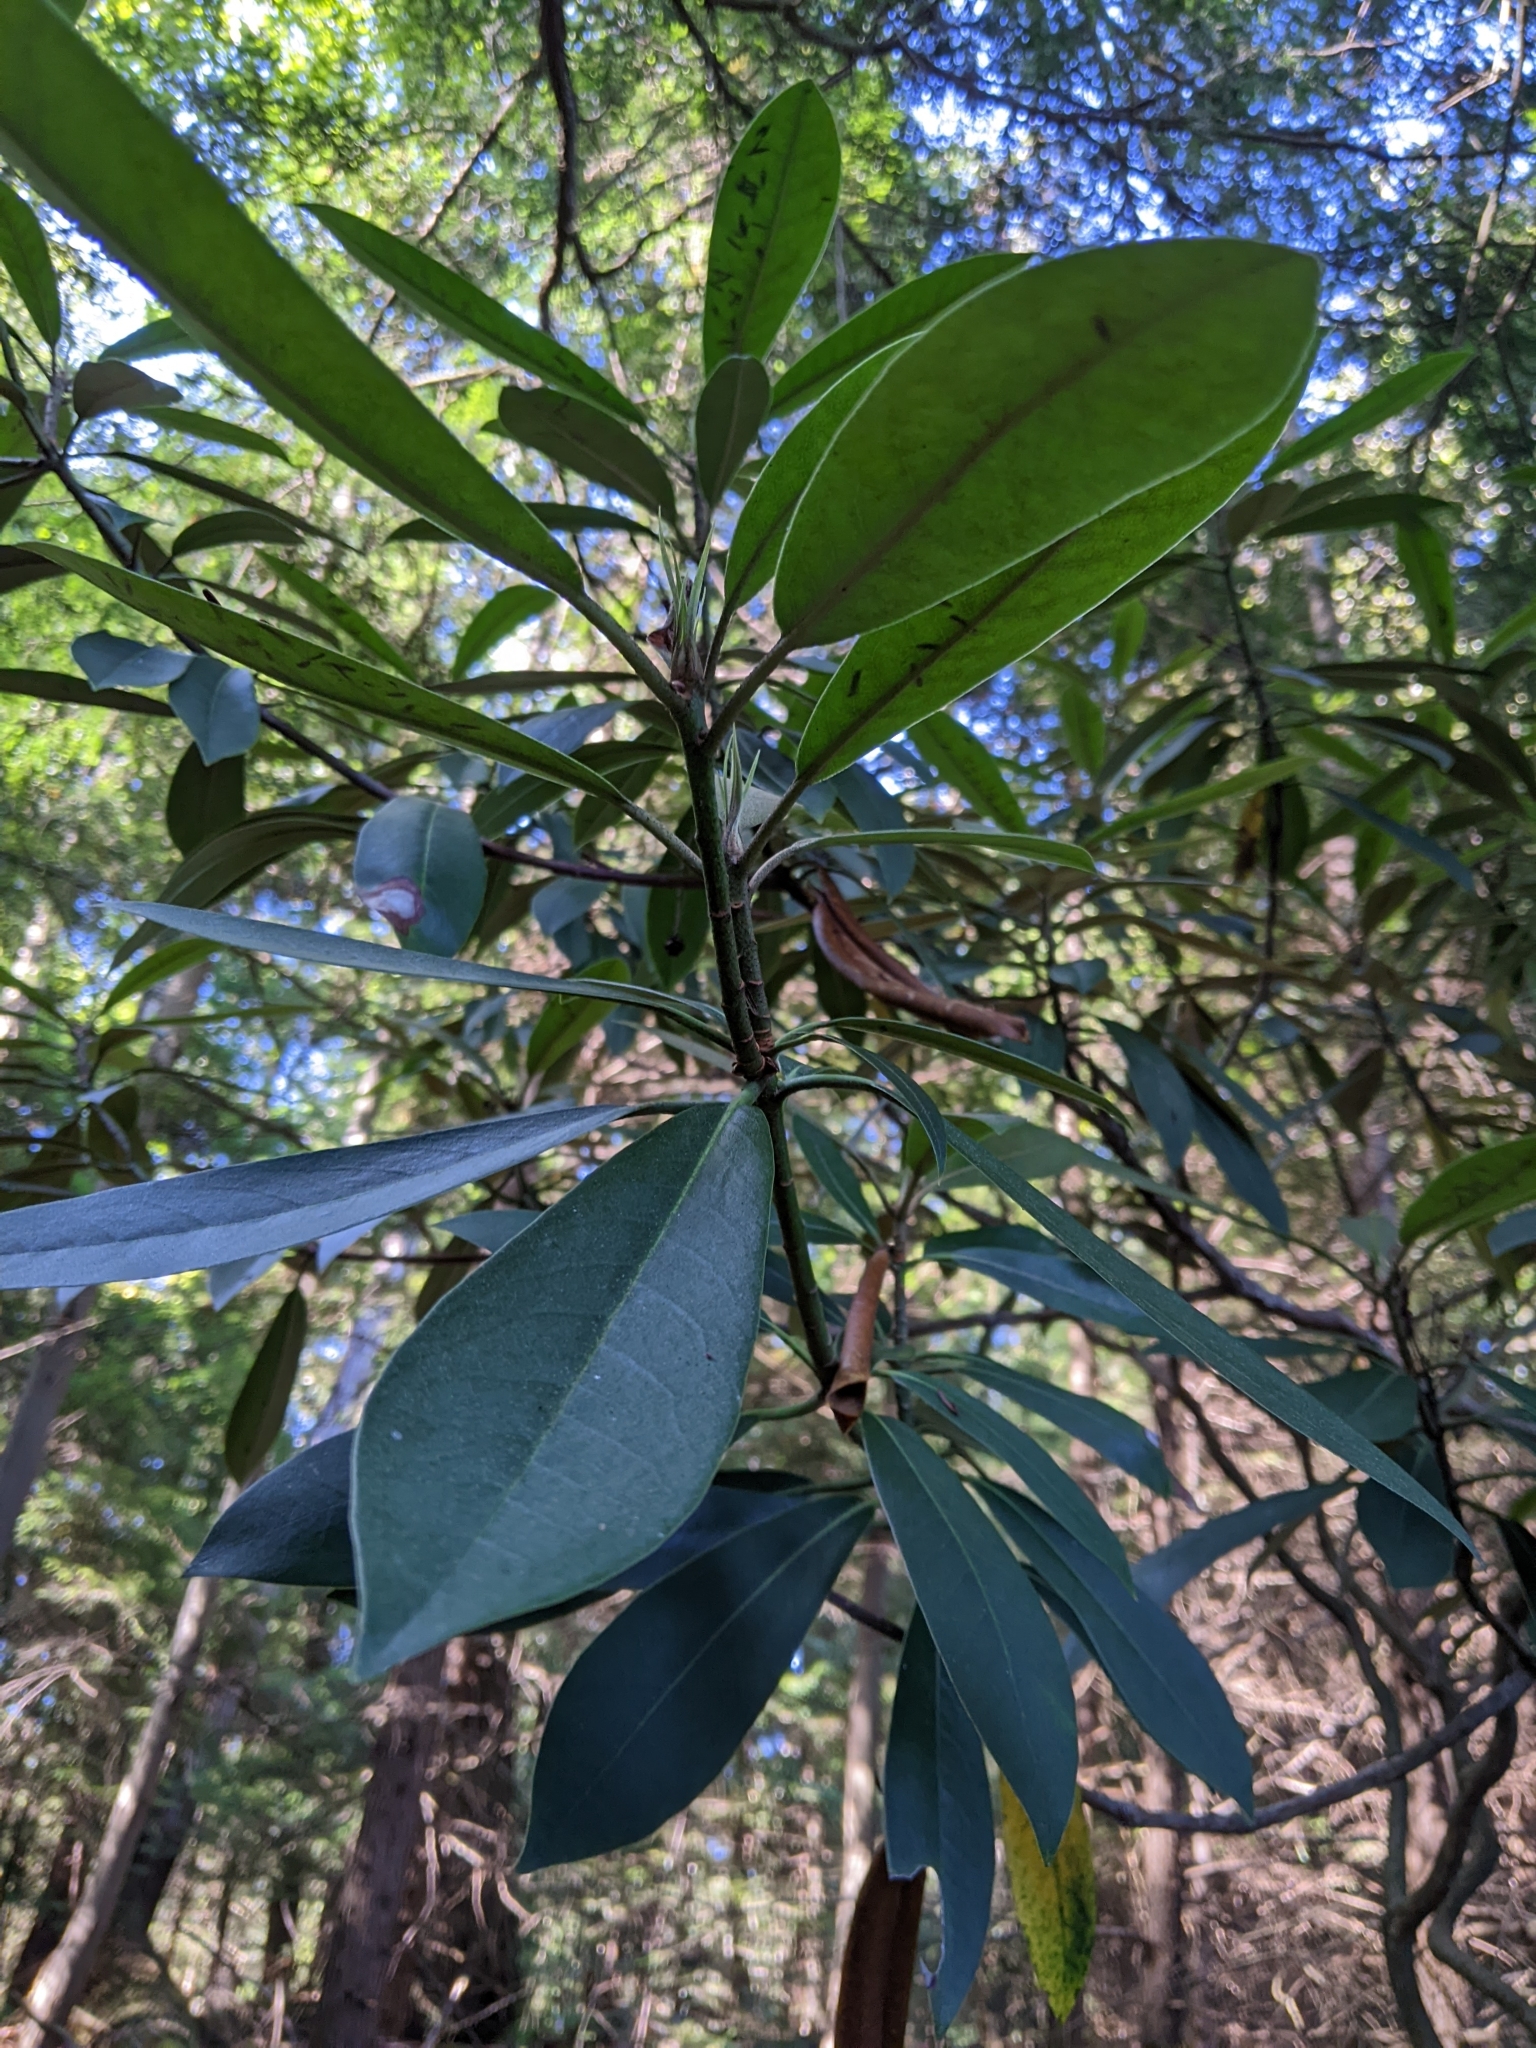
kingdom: Plantae
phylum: Tracheophyta
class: Magnoliopsida
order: Ericales
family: Ericaceae
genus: Rhododendron
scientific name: Rhododendron maximum
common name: Great rhododendron
